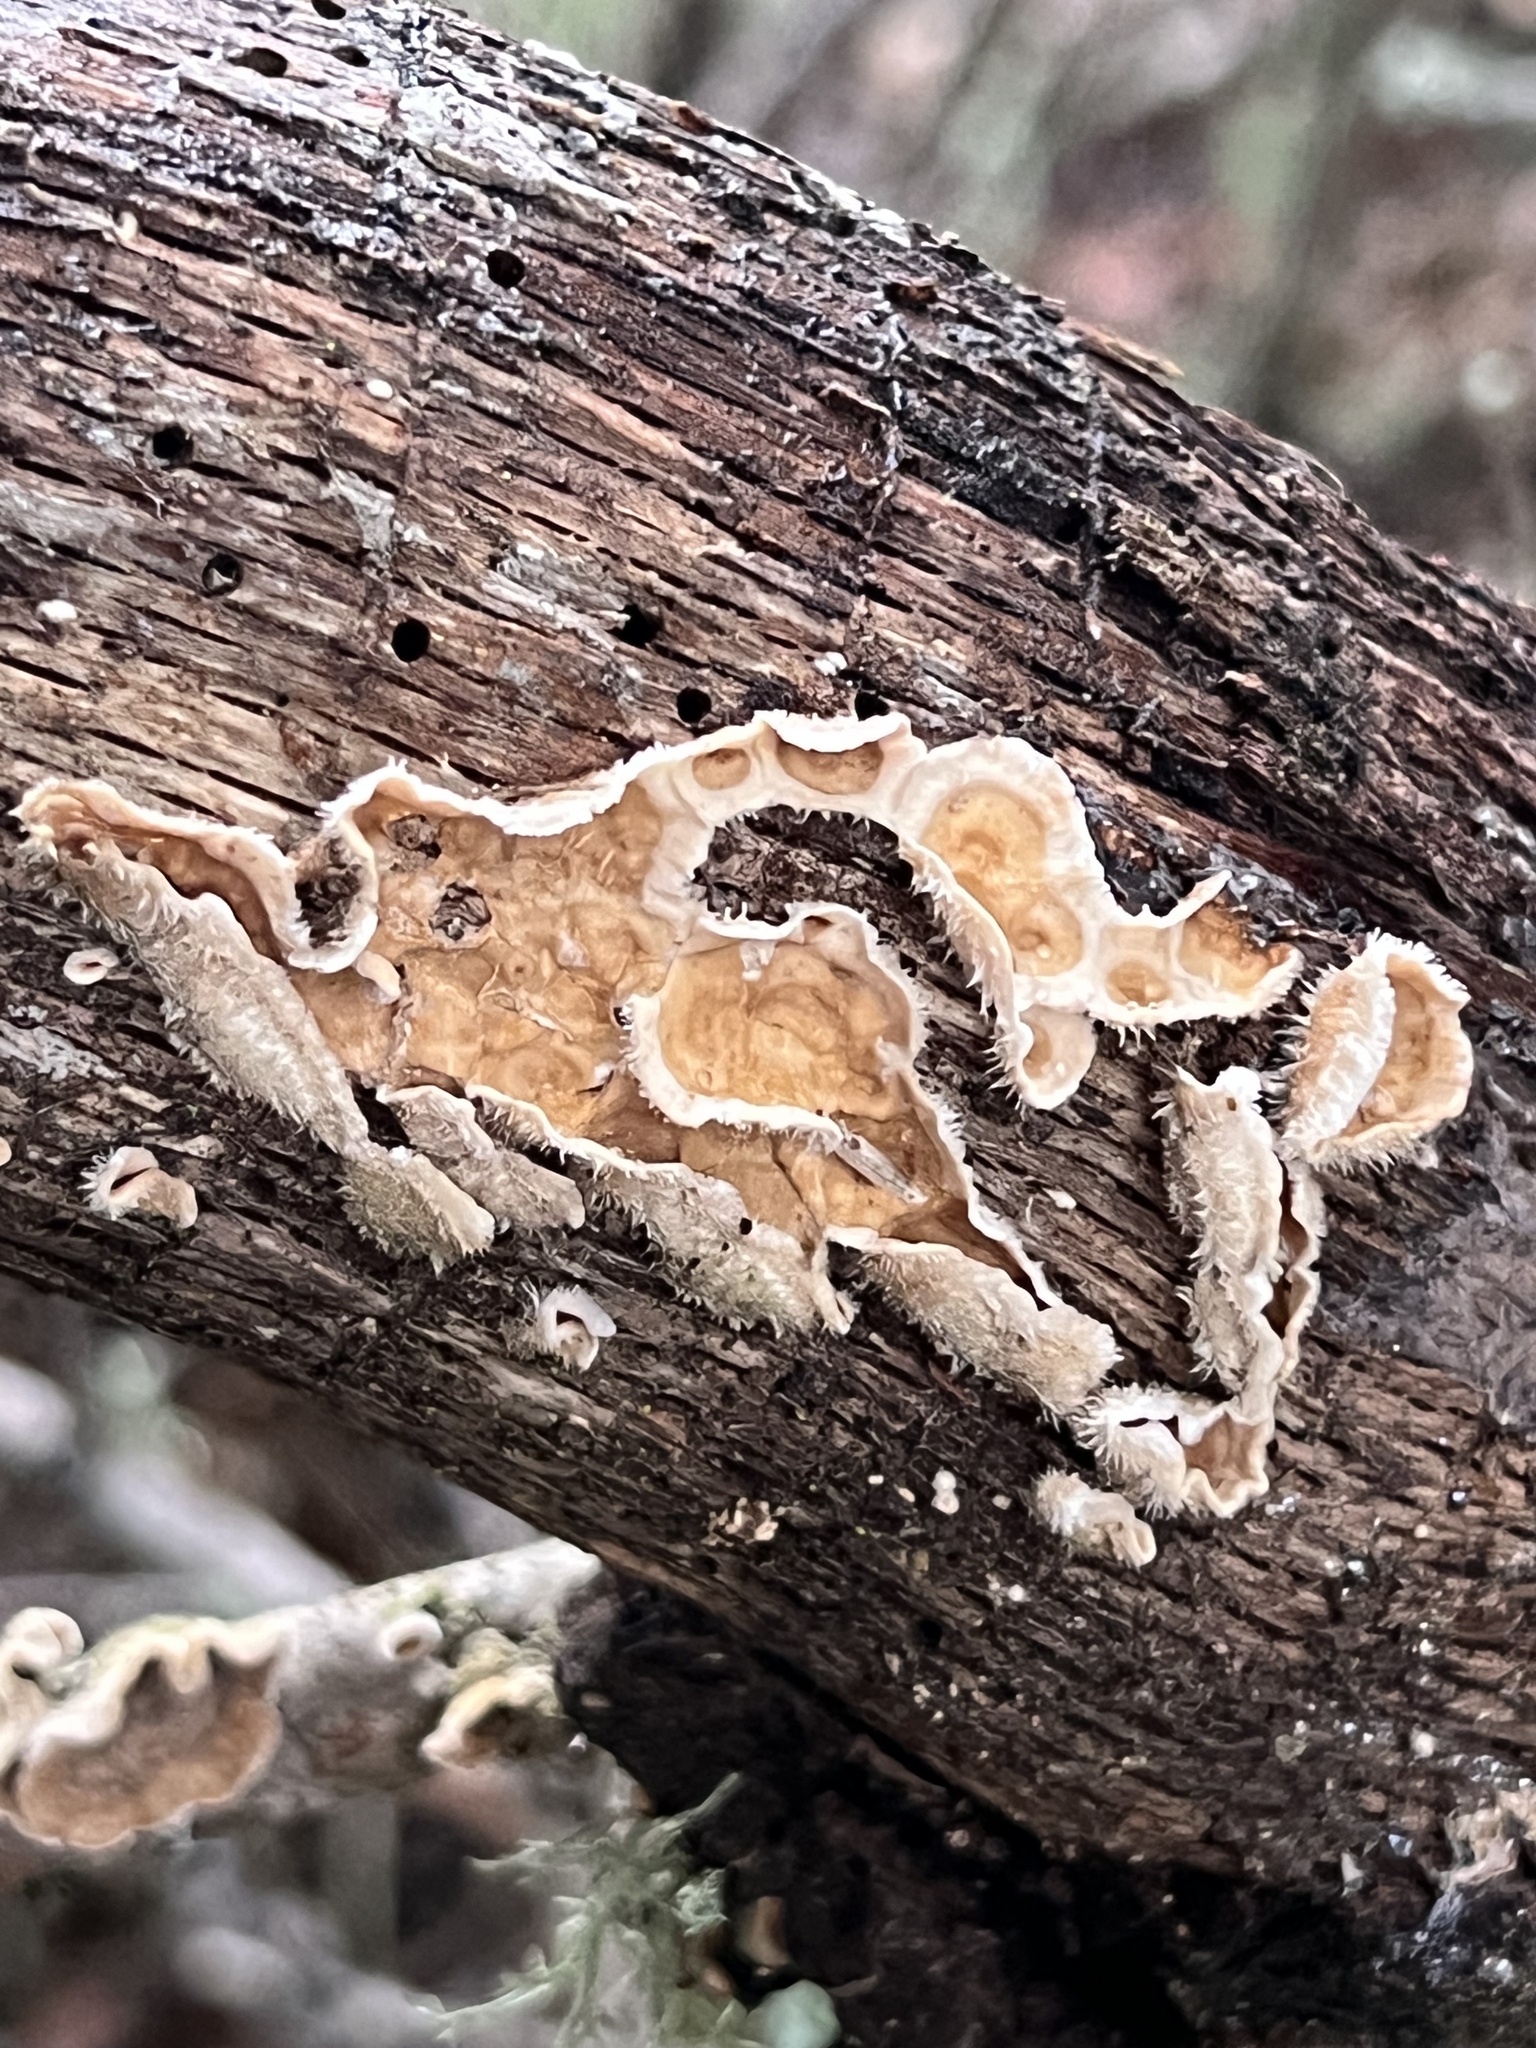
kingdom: Fungi
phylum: Basidiomycota
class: Agaricomycetes
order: Russulales
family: Stereaceae
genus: Stereum
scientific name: Stereum ochraceoflavum
